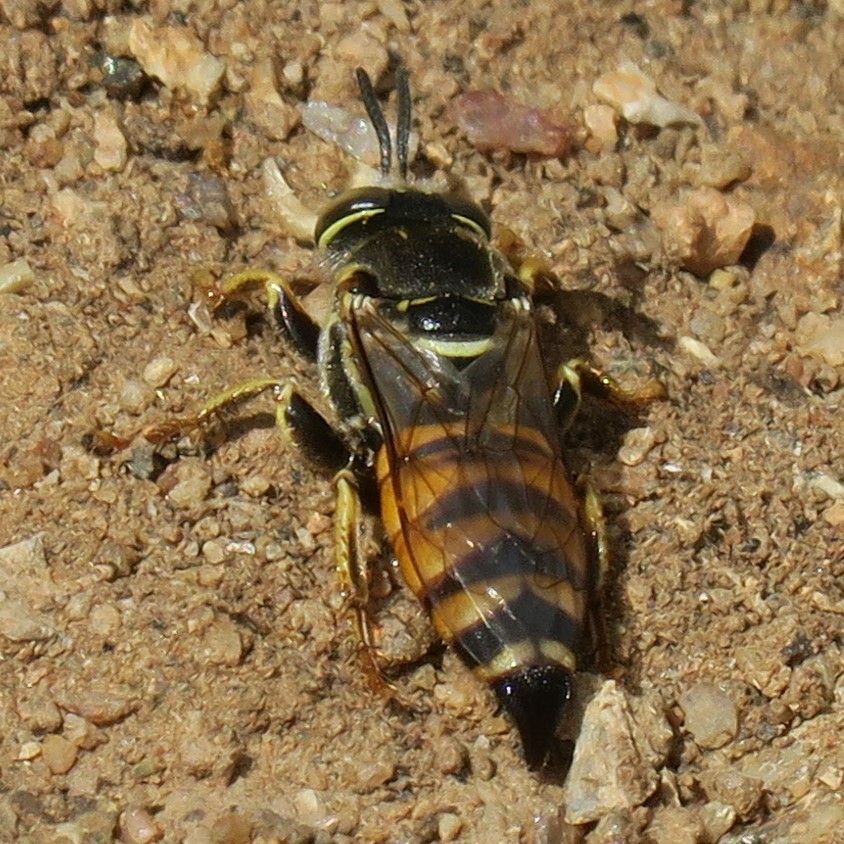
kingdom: Animalia
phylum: Arthropoda
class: Insecta
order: Hymenoptera
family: Crabronidae
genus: Palarus
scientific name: Palarus latifrons
